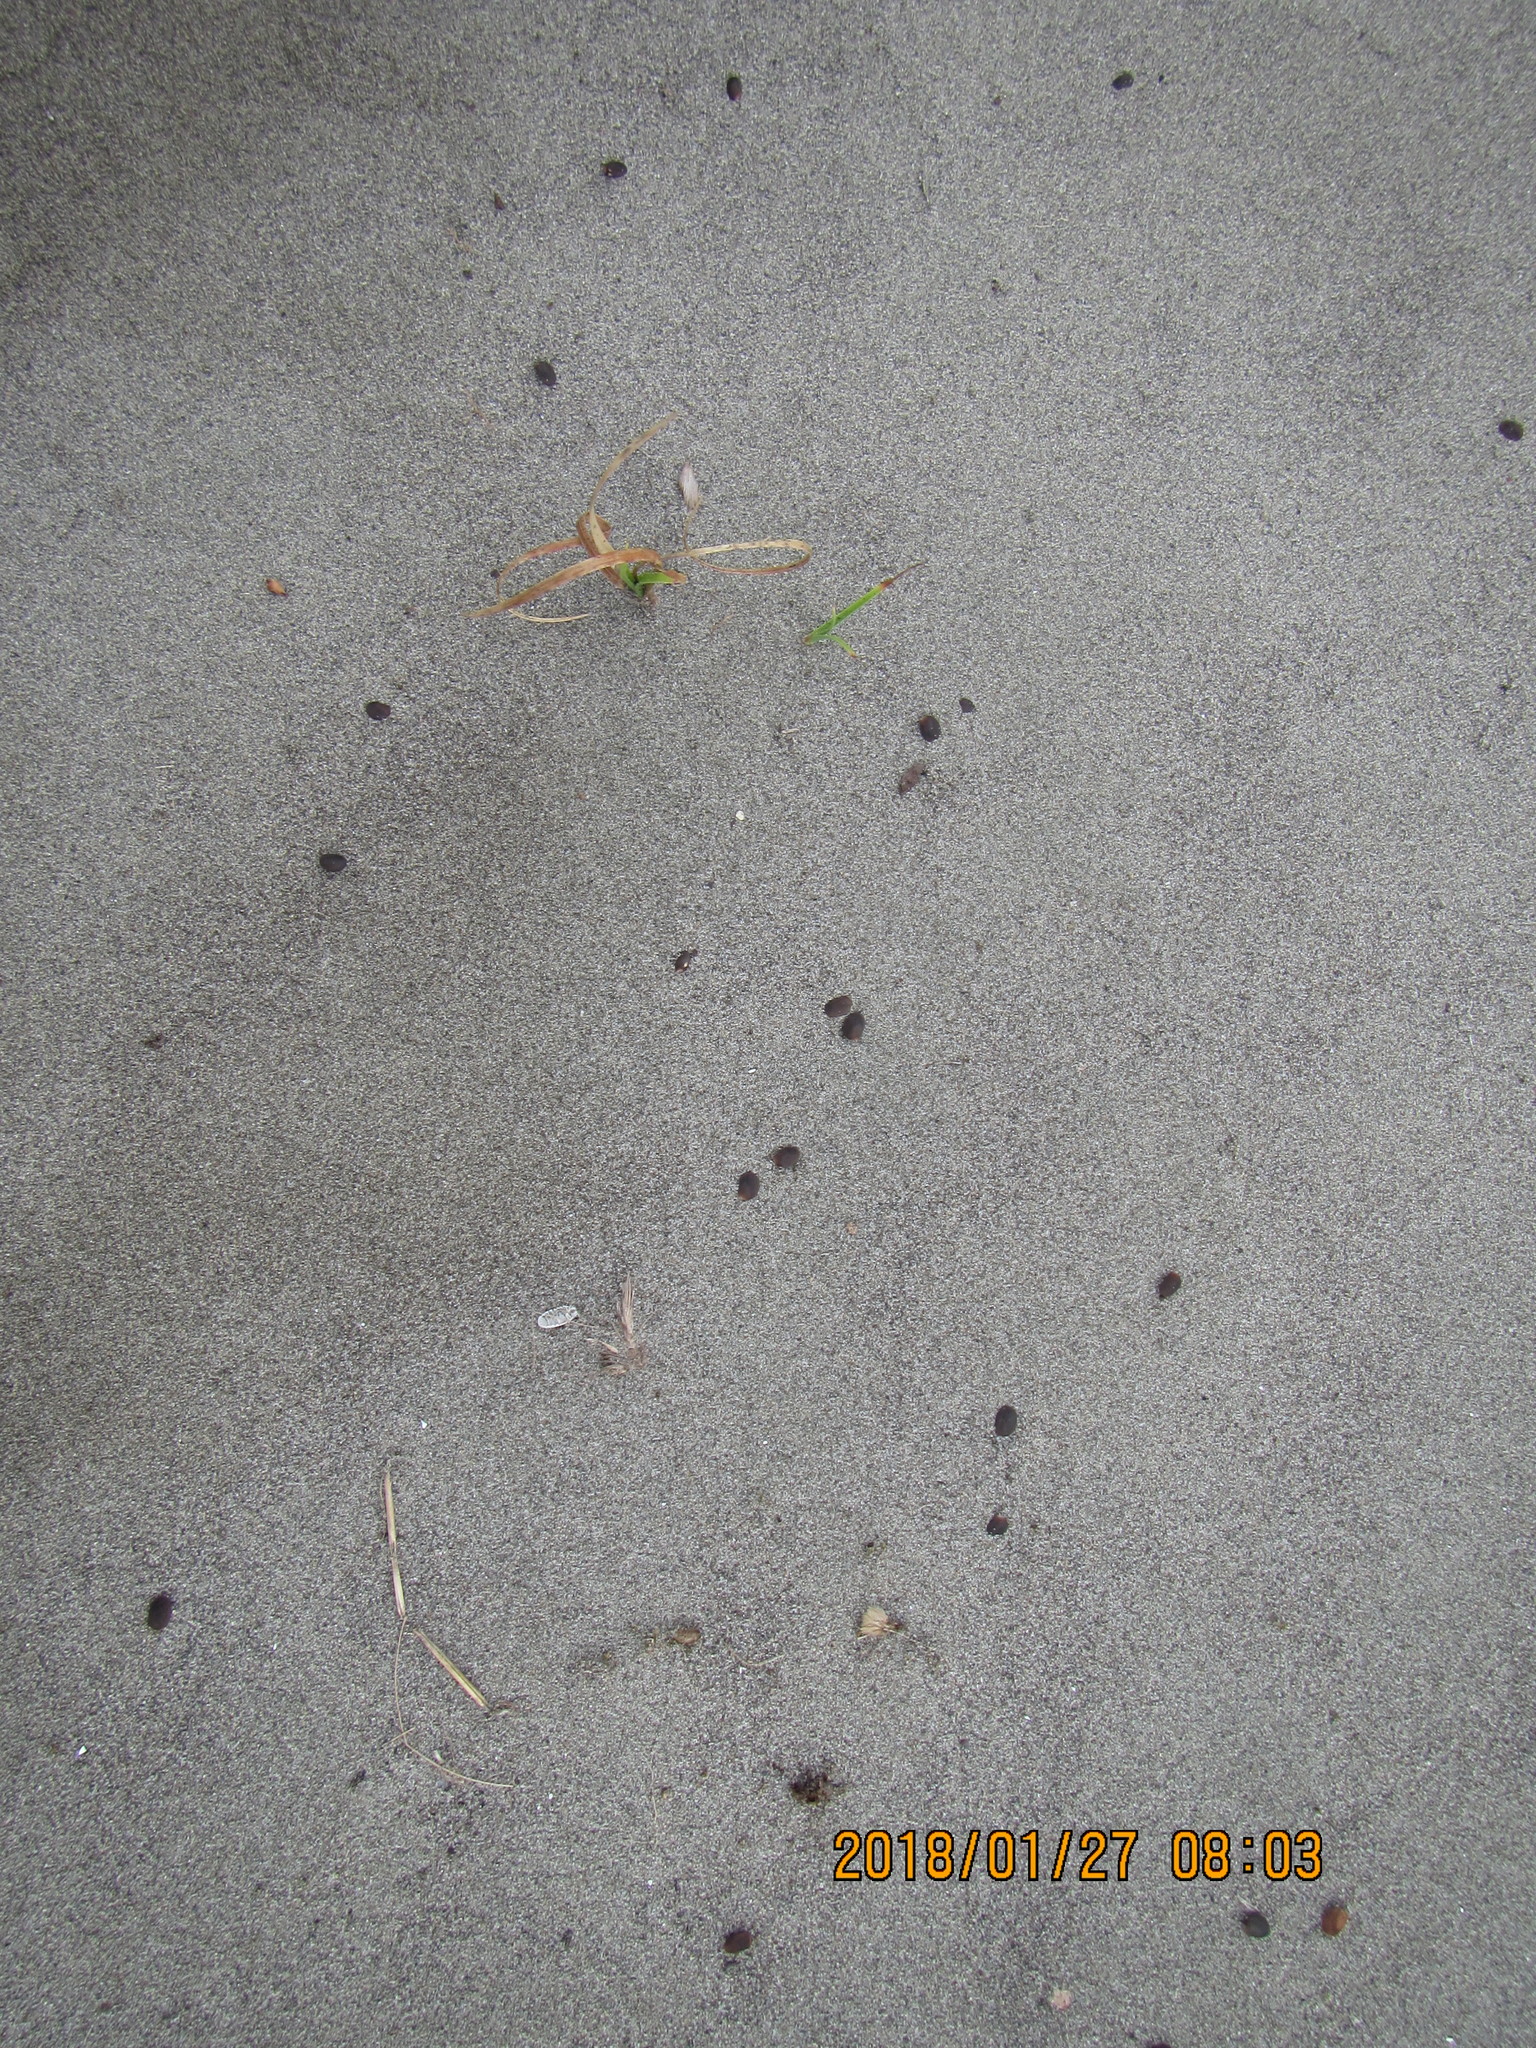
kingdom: Plantae
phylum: Tracheophyta
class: Magnoliopsida
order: Fabales
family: Fabaceae
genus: Lupinus
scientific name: Lupinus arboreus
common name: Yellow bush lupine
